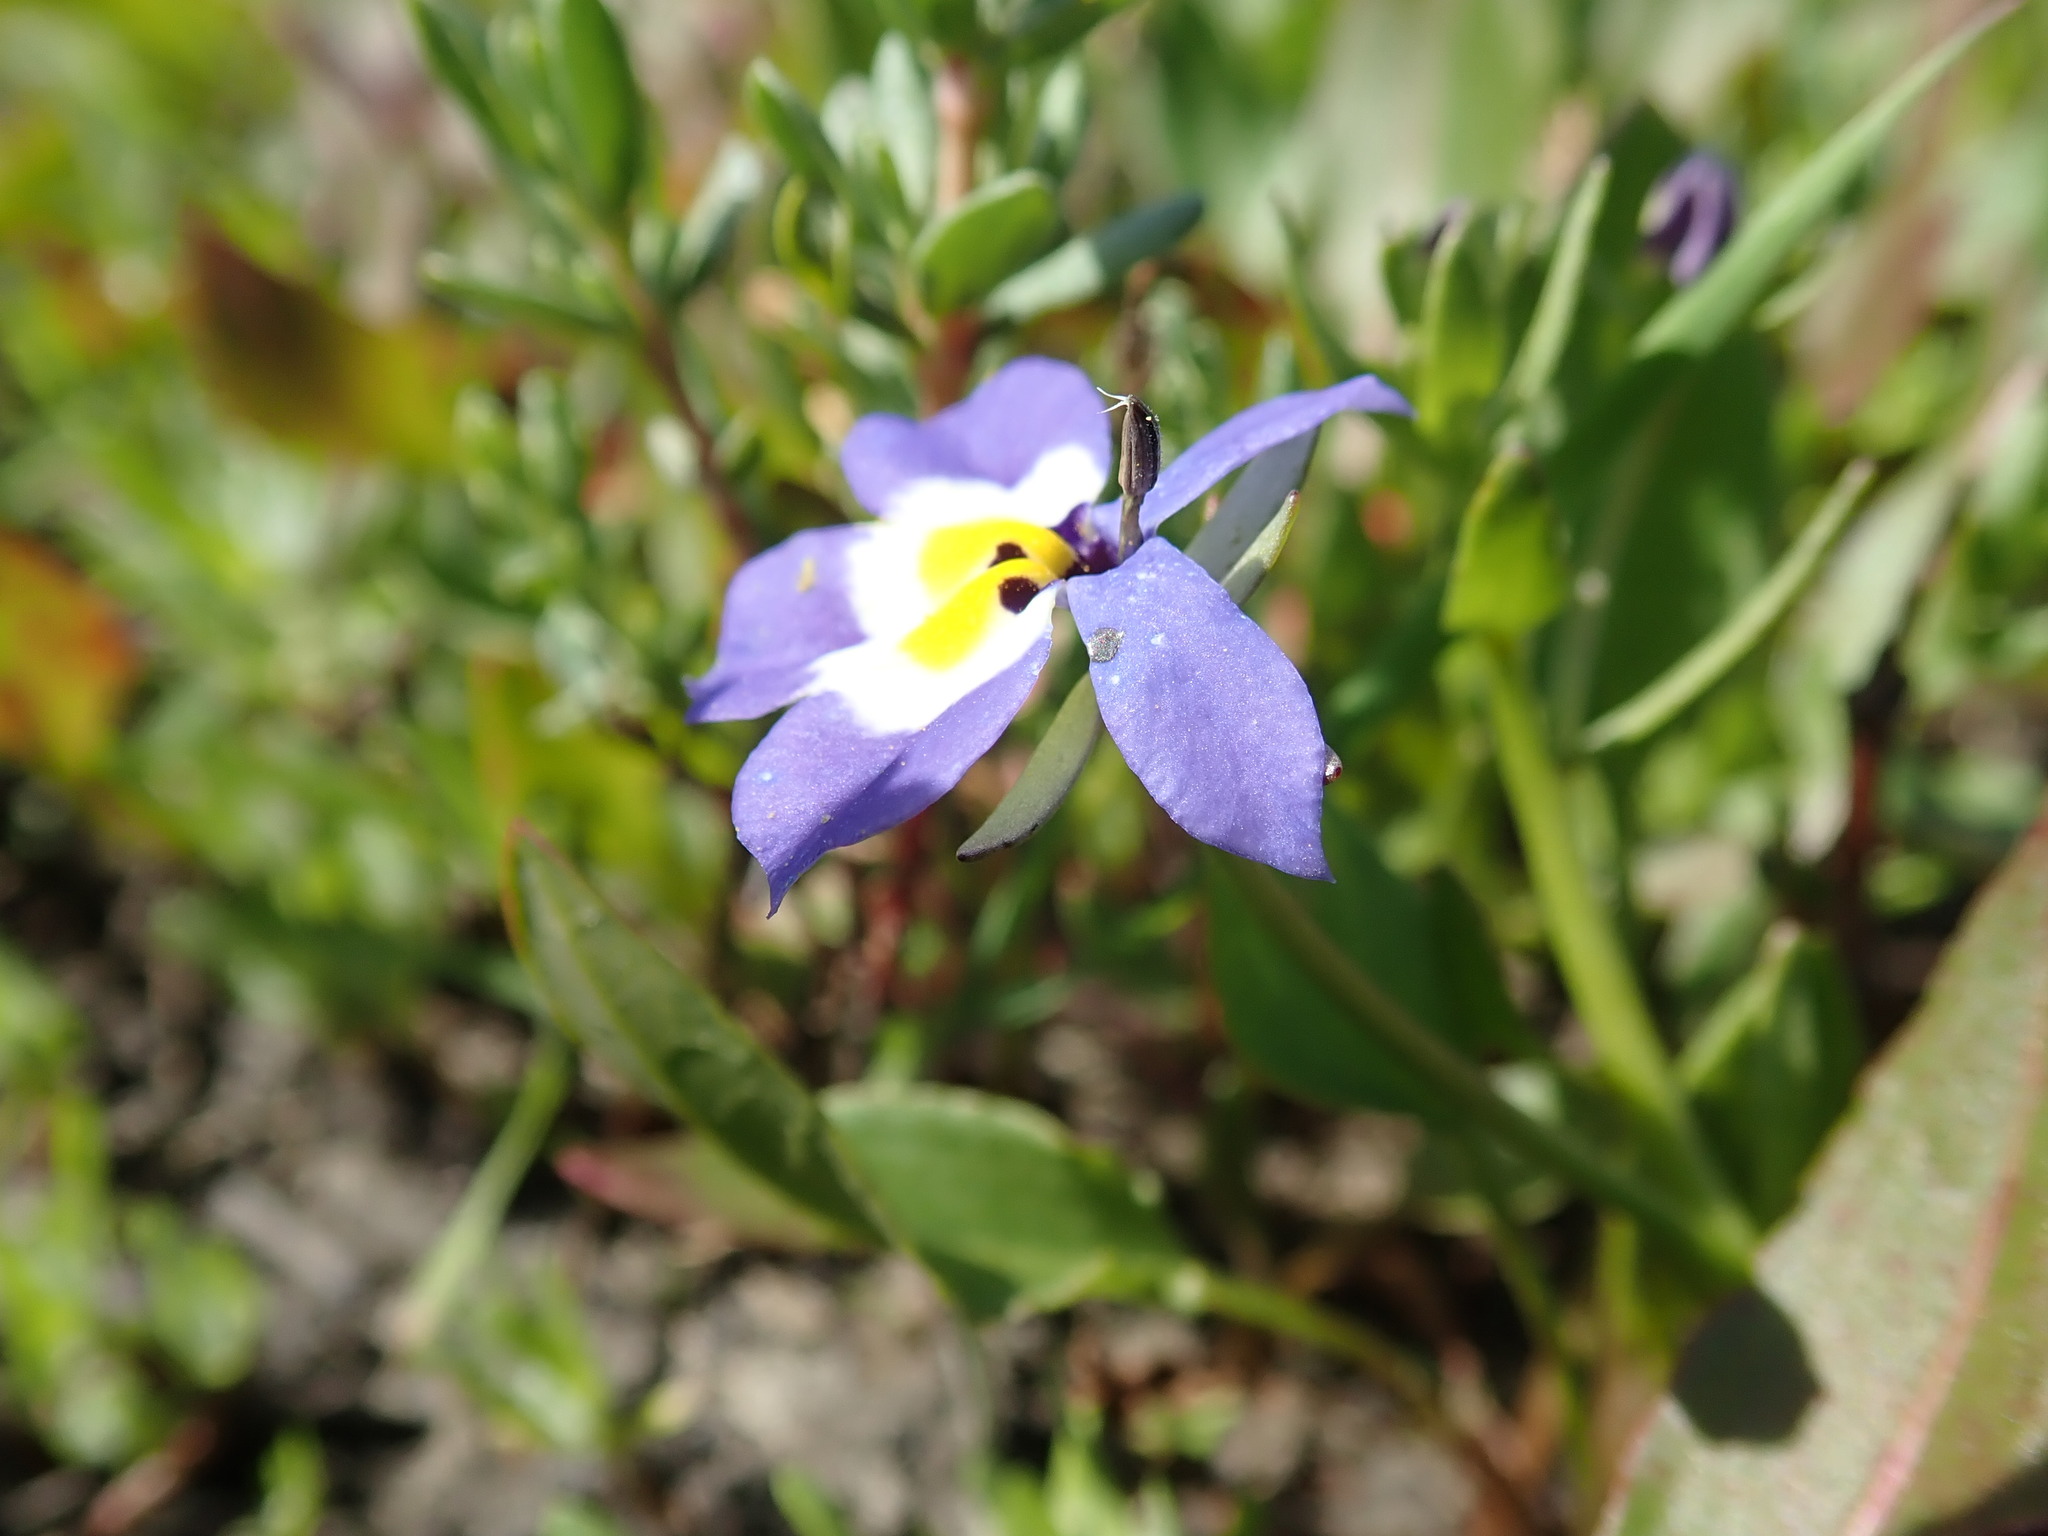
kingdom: Plantae
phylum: Tracheophyta
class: Magnoliopsida
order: Asterales
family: Campanulaceae
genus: Downingia
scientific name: Downingia pulchella
